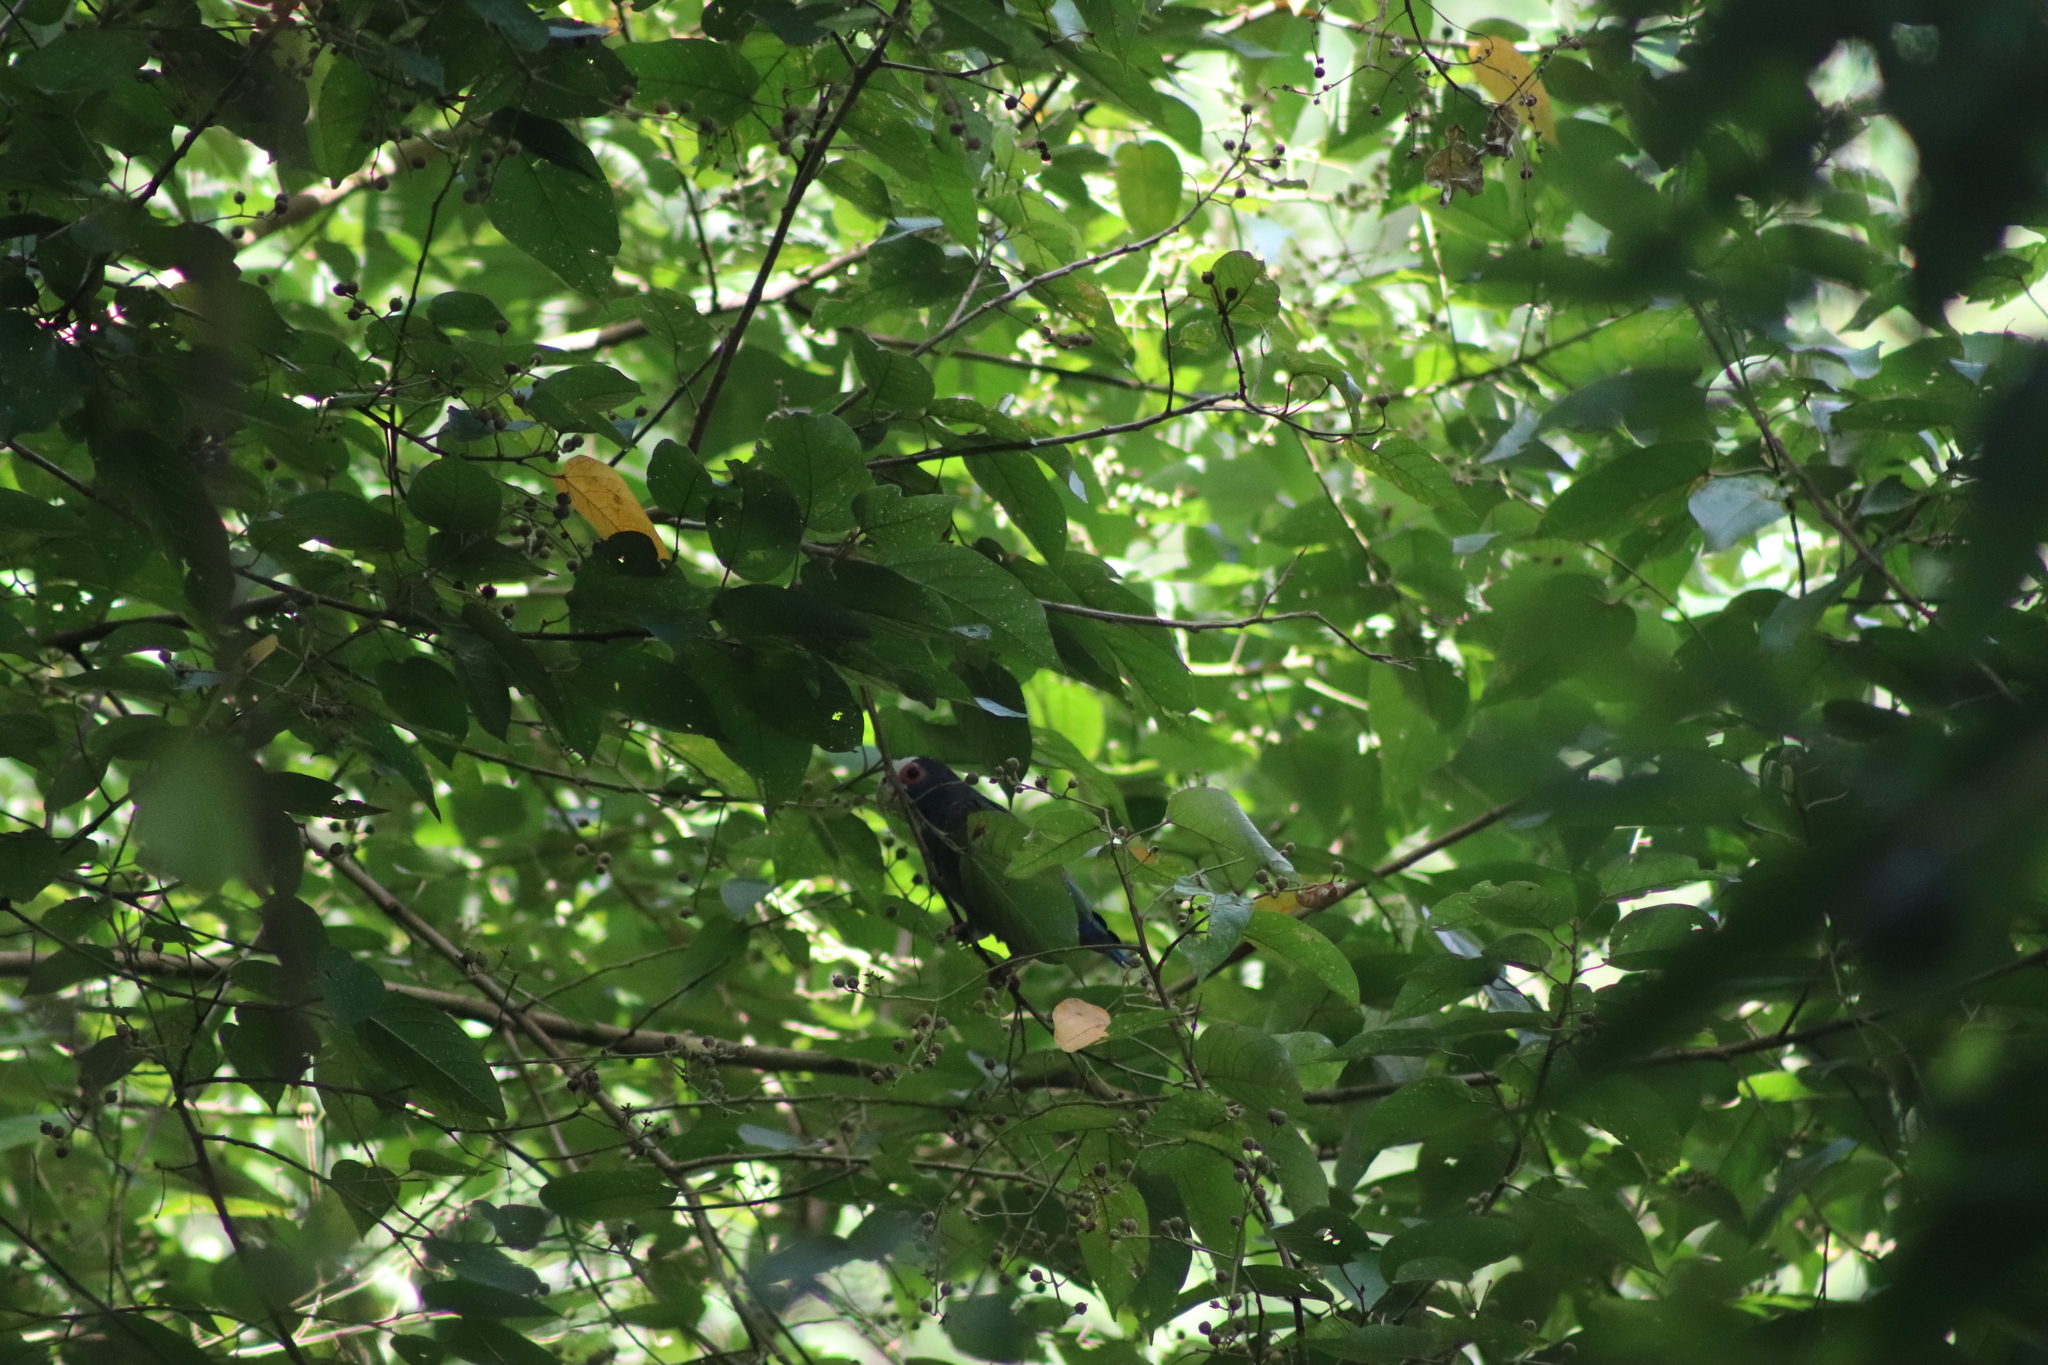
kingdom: Animalia
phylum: Chordata
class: Aves
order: Psittaciformes
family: Psittacidae
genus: Pionus
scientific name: Pionus senilis
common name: White-crowned parrot
